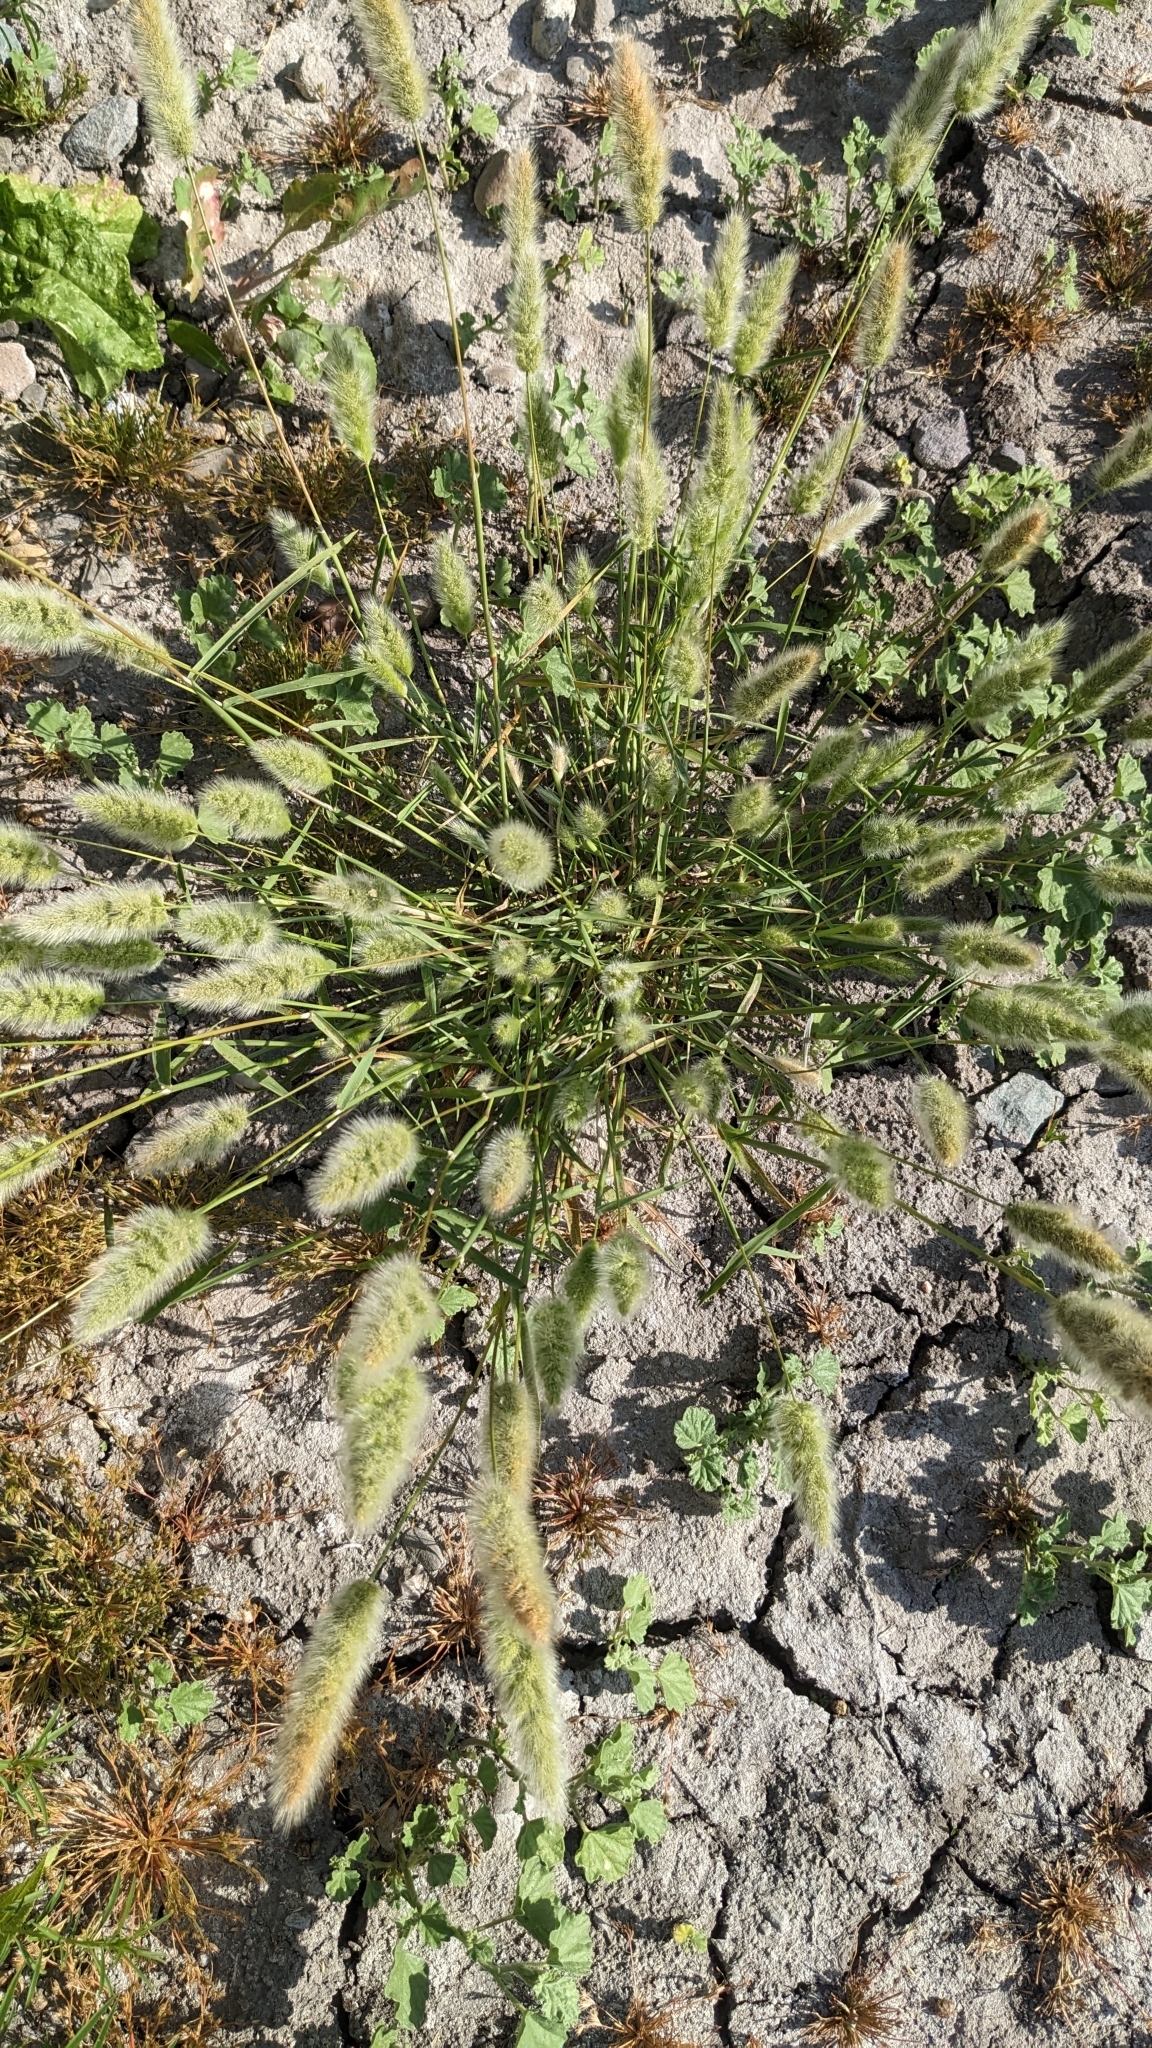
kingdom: Plantae
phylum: Tracheophyta
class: Liliopsida
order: Poales
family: Poaceae
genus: Polypogon
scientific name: Polypogon monspeliensis
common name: Annual rabbitsfoot grass
